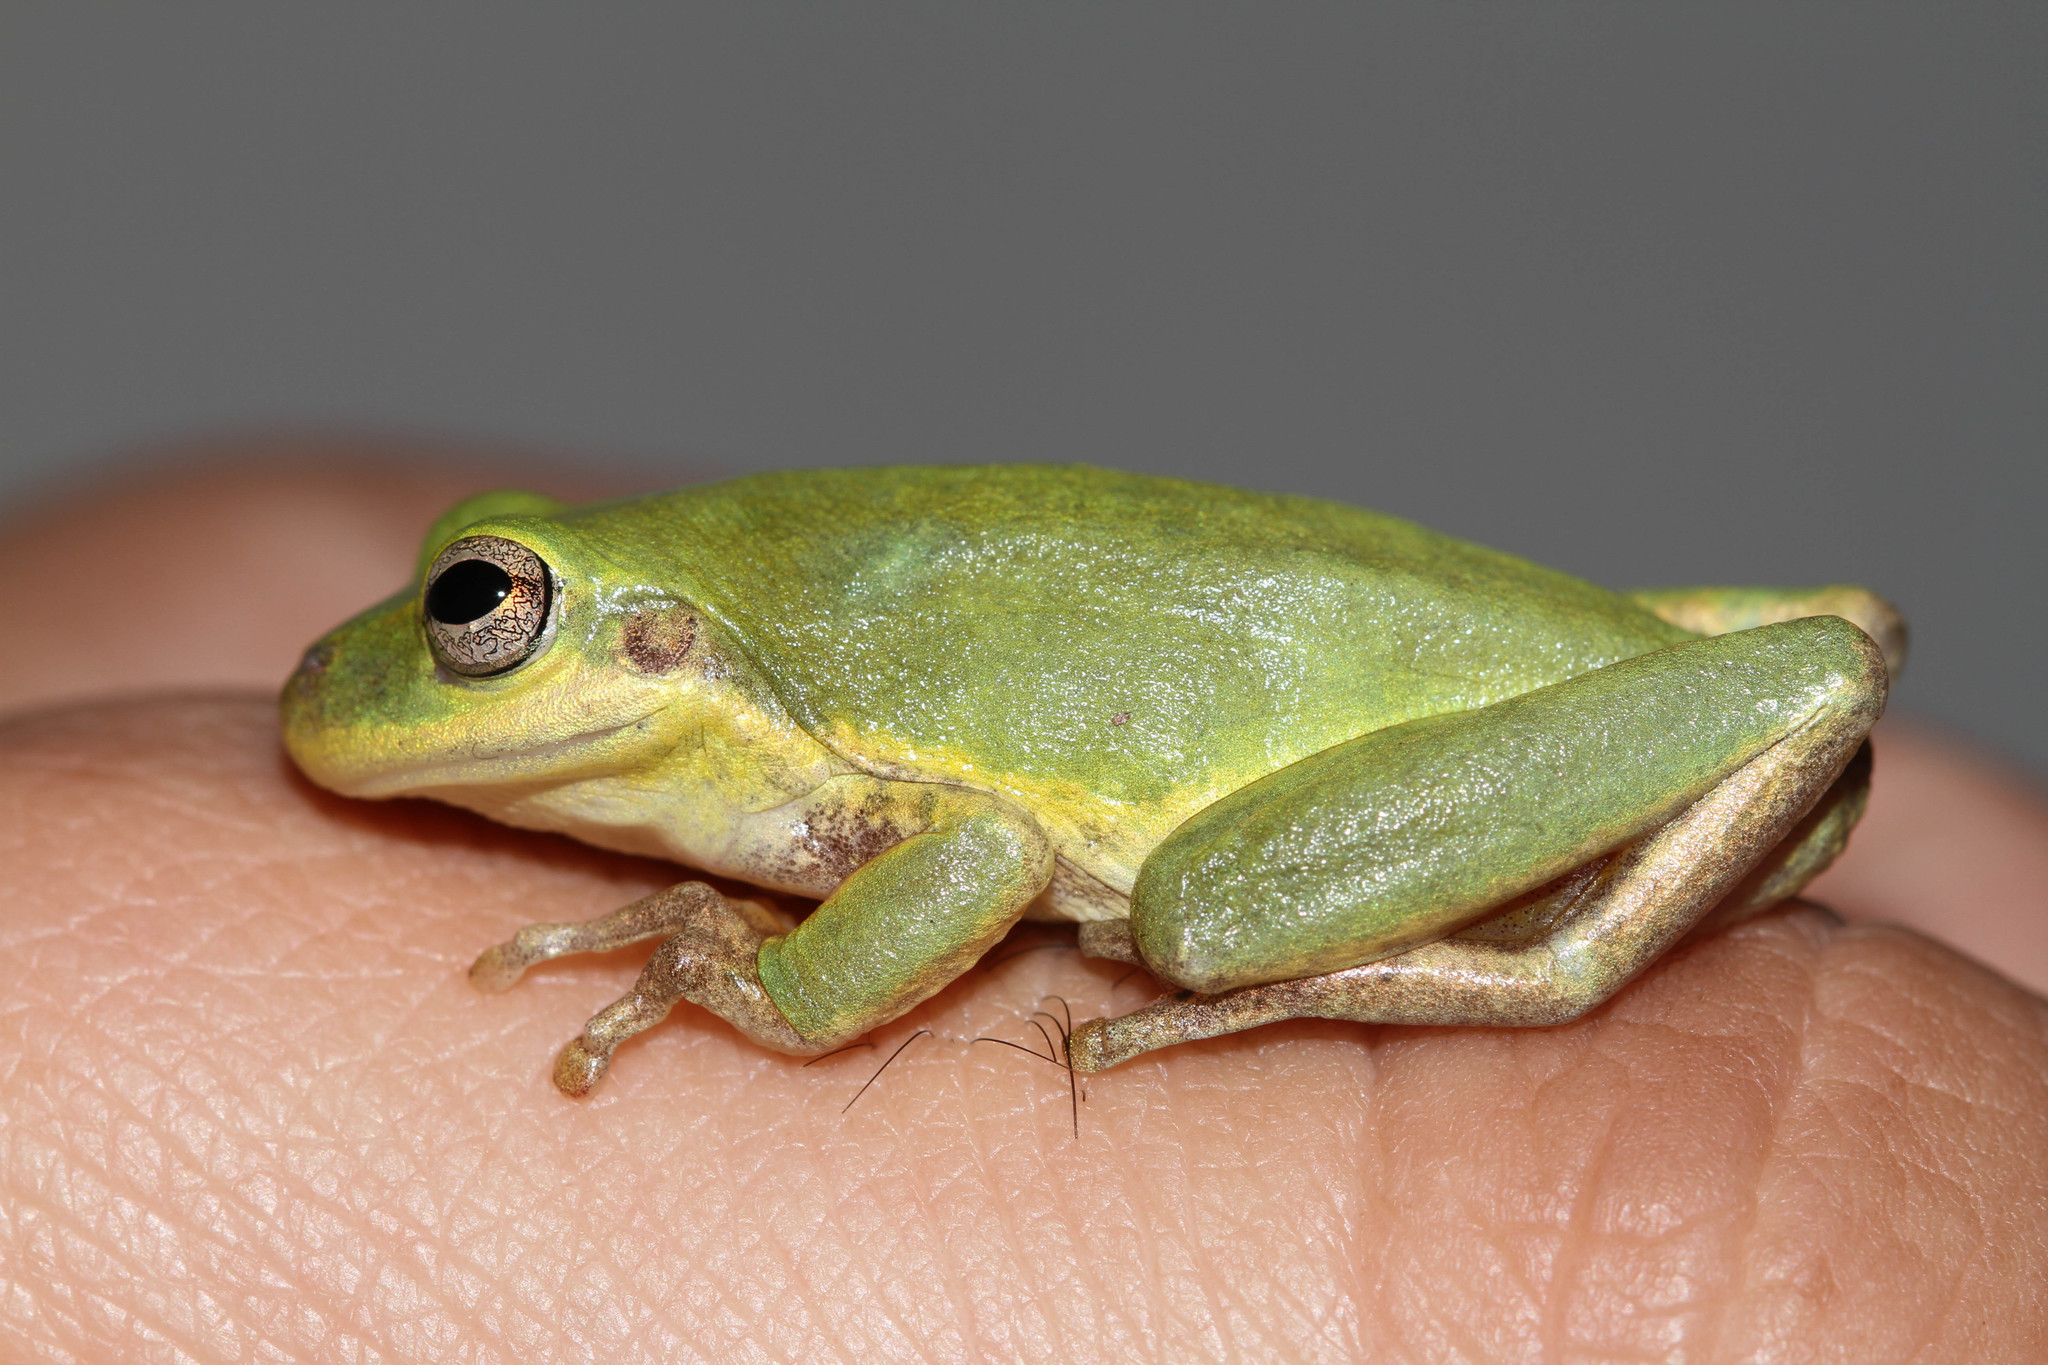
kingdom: Animalia
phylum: Chordata
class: Amphibia
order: Anura
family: Hylidae
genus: Dryophytes
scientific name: Dryophytes squirellus
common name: Squirrel treefrog
